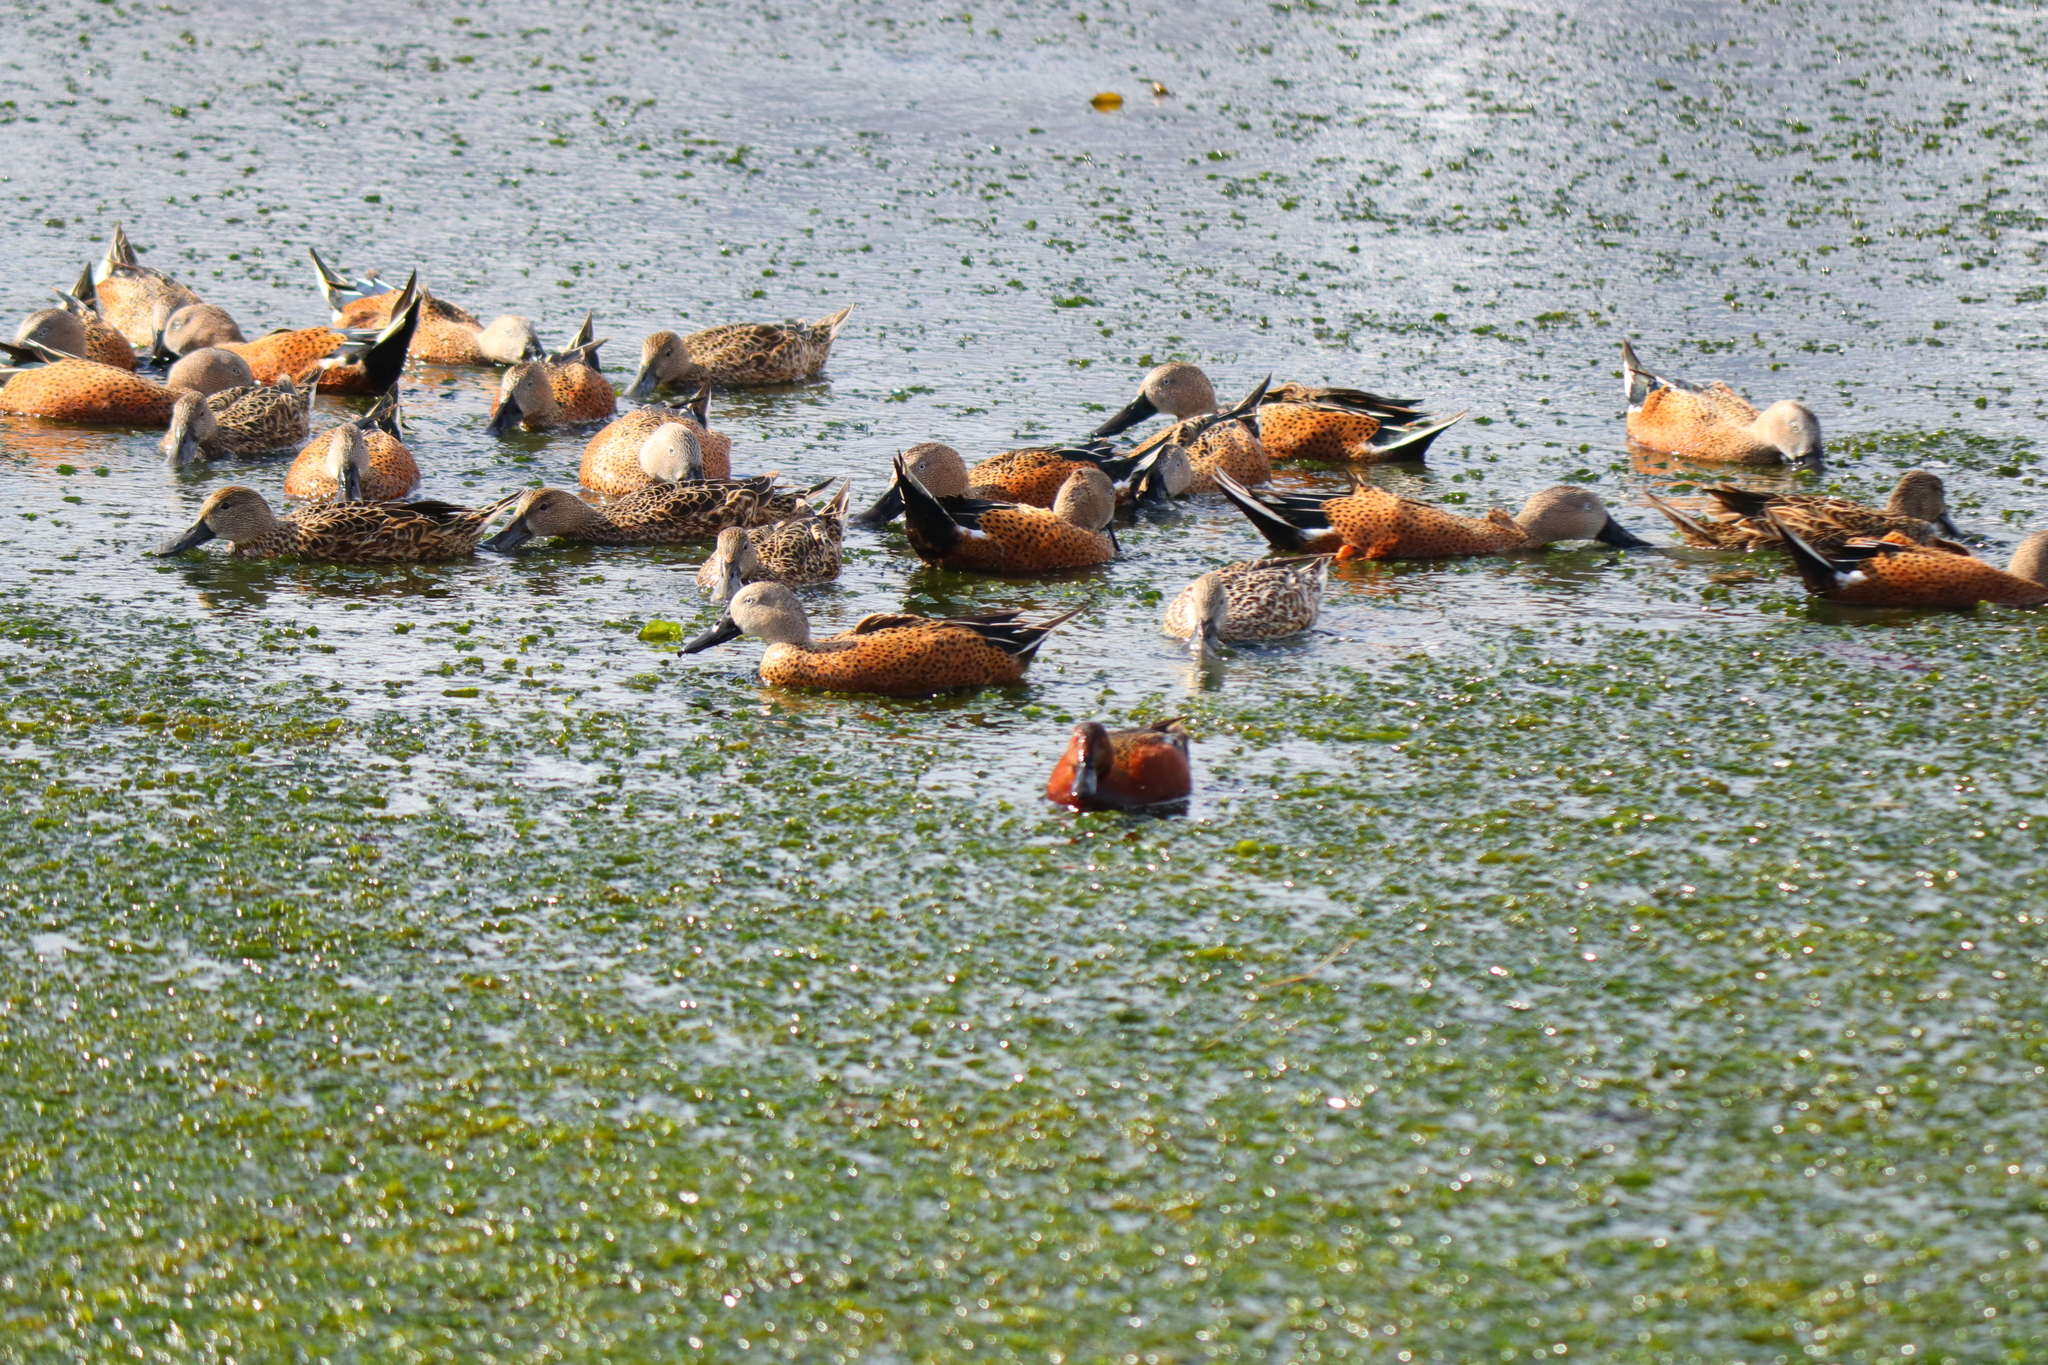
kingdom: Animalia
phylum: Chordata
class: Aves
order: Anseriformes
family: Anatidae
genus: Spatula
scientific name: Spatula platalea
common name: Red shoveler
